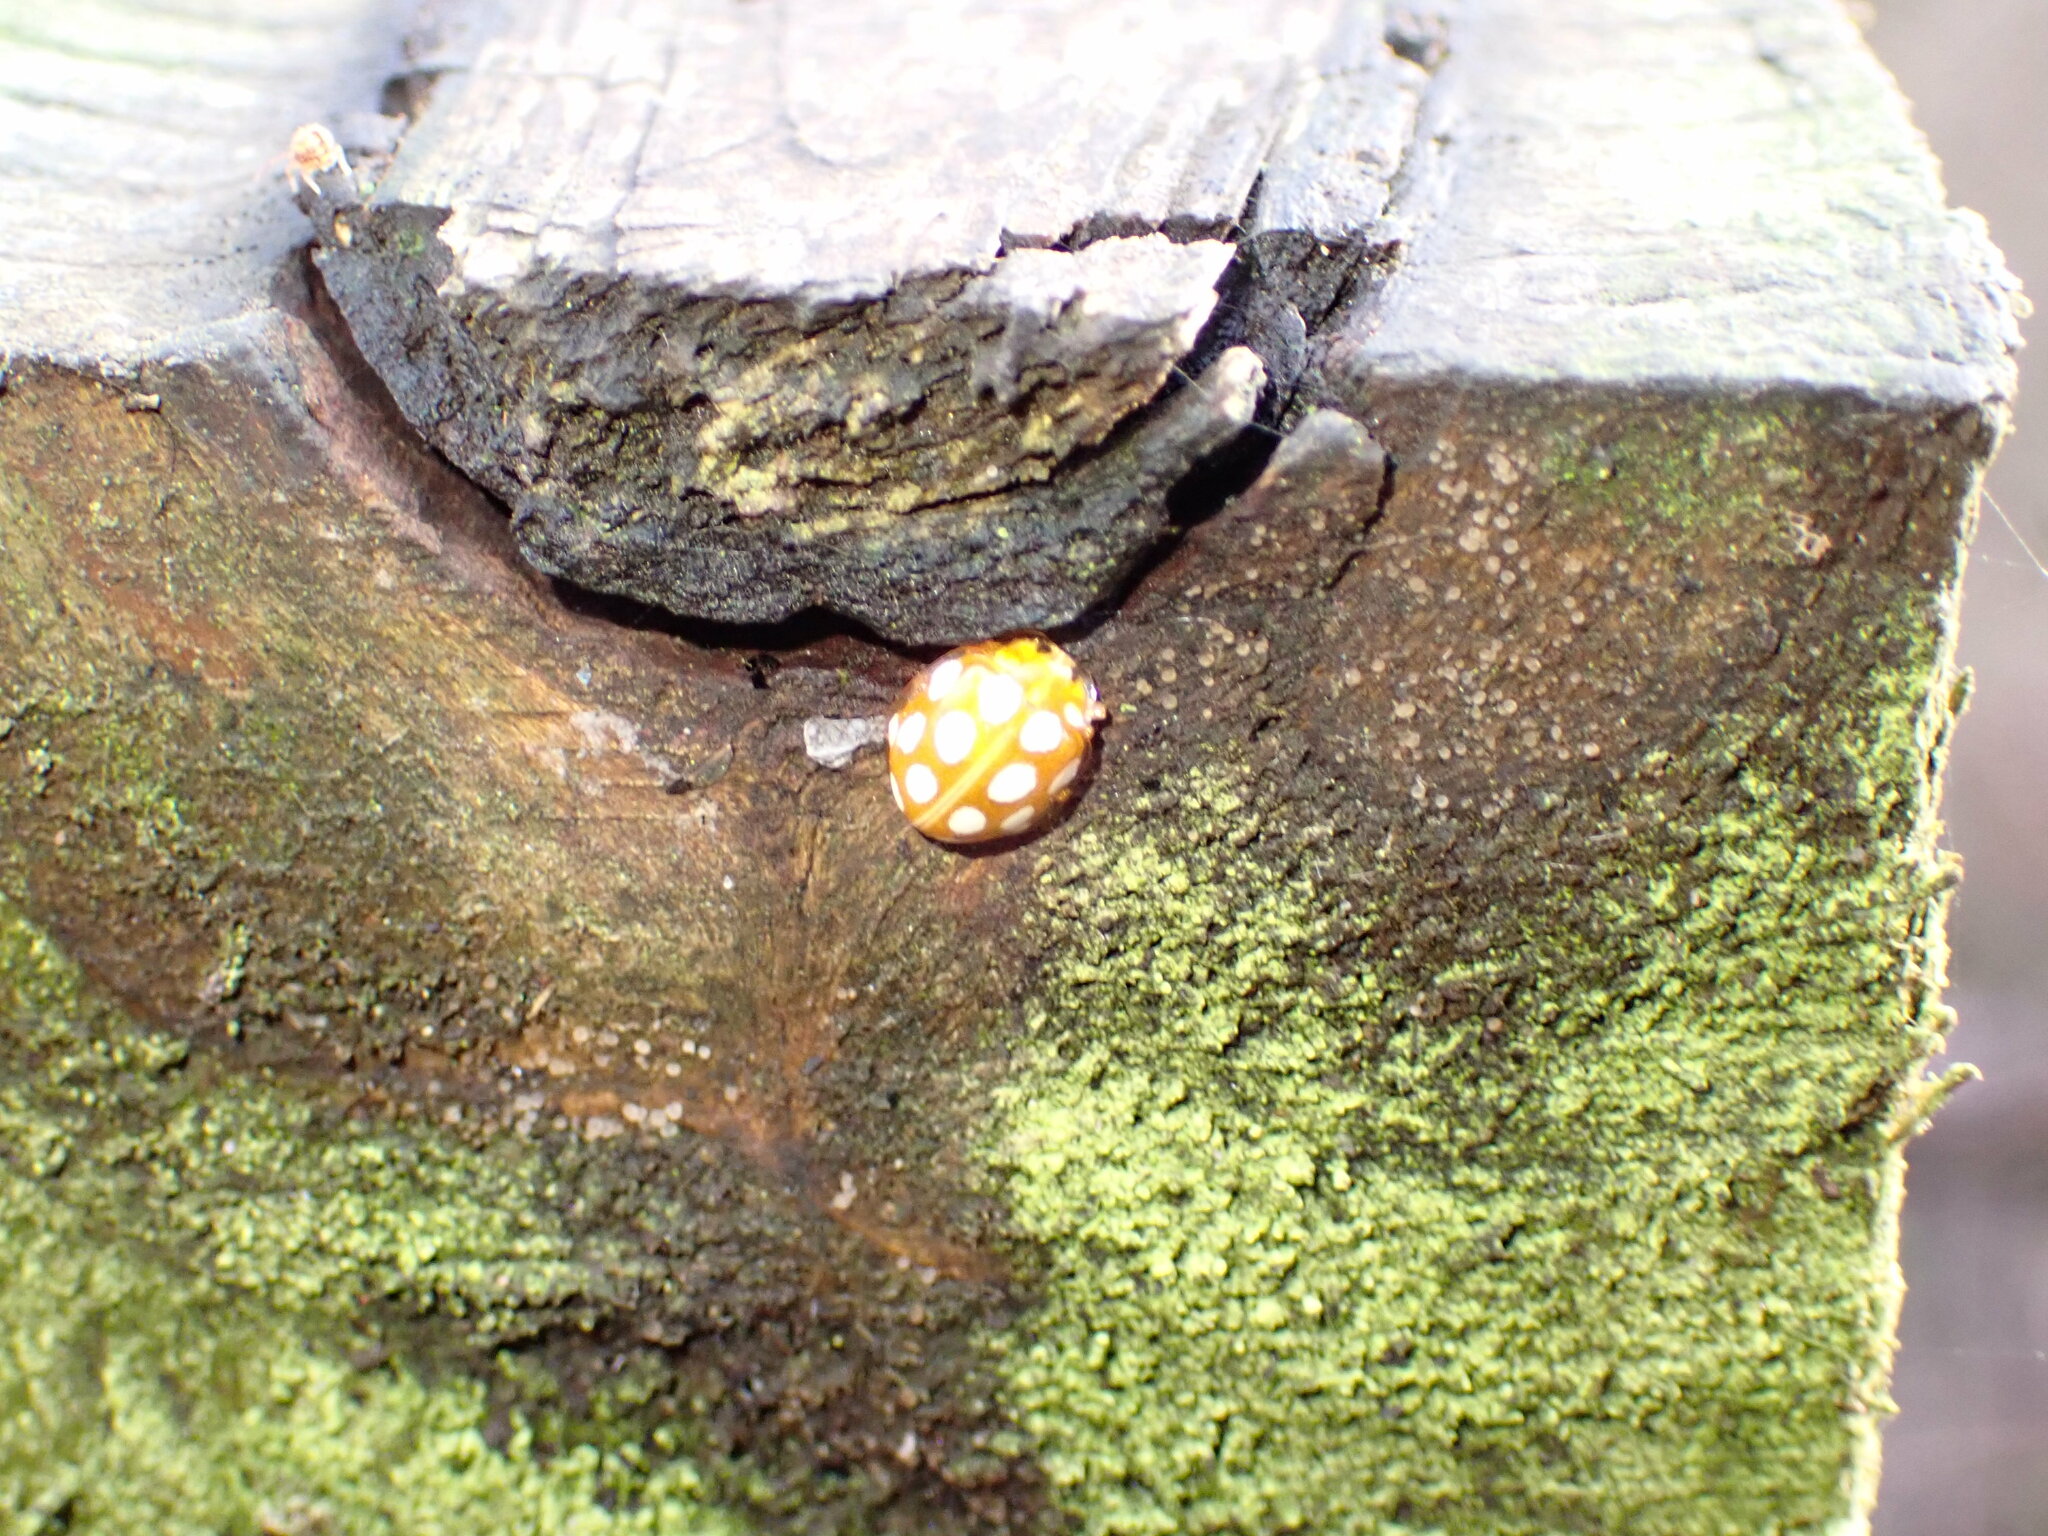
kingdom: Animalia
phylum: Arthropoda
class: Insecta
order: Coleoptera
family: Coccinellidae
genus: Halyzia
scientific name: Halyzia sedecimguttata
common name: Orange ladybird
